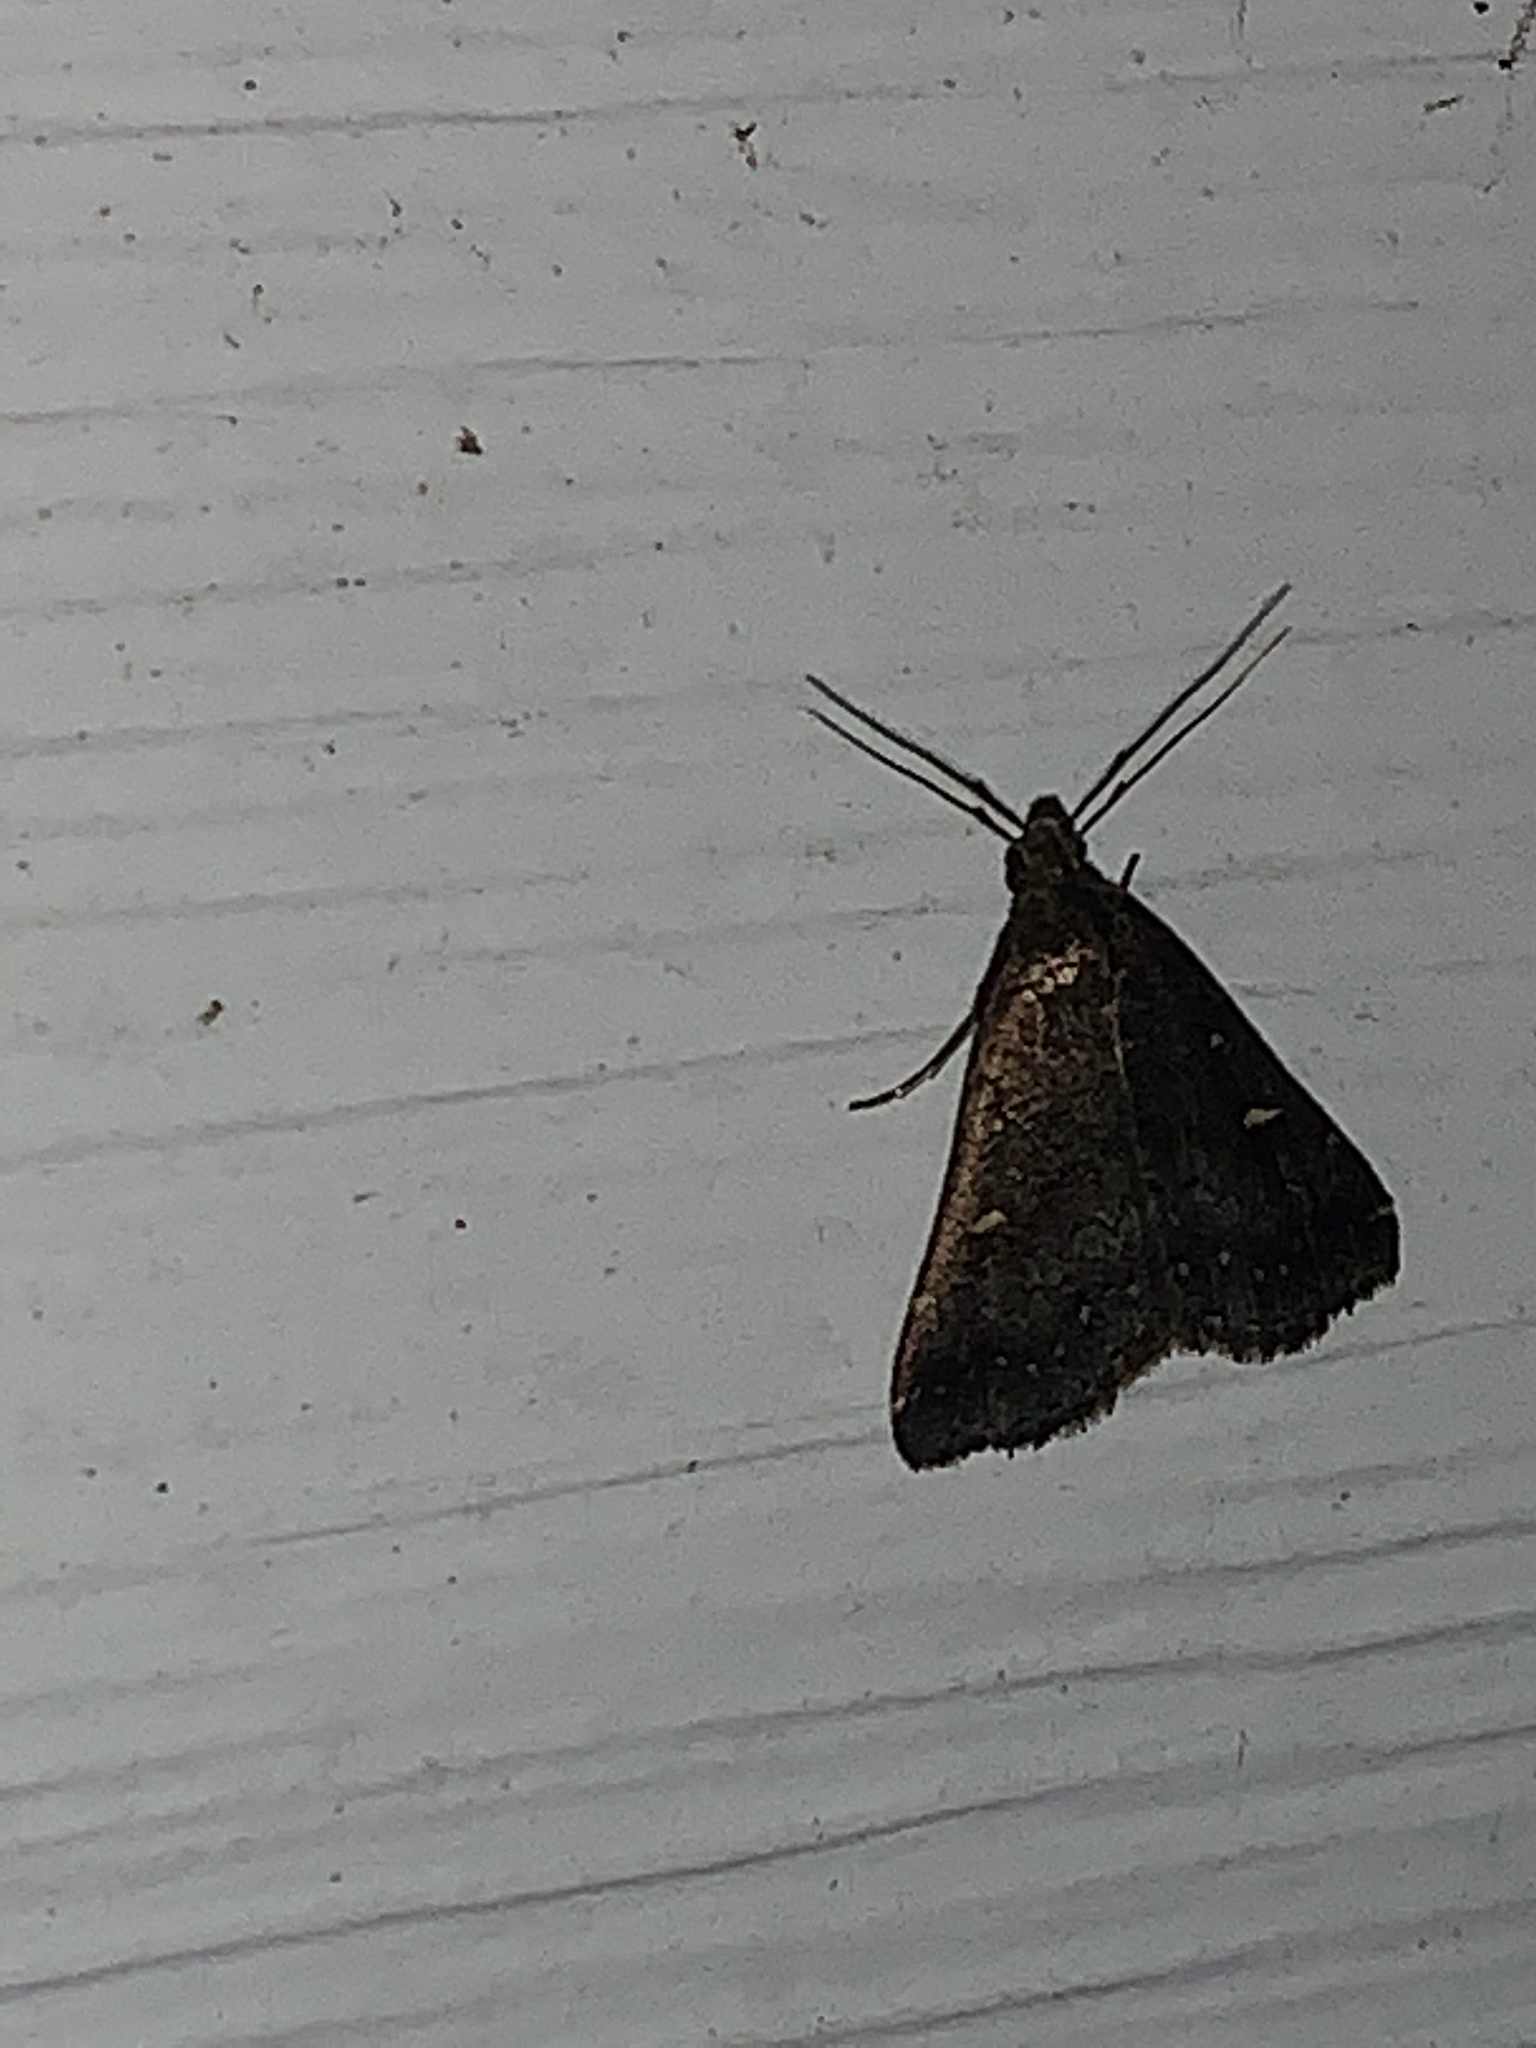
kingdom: Animalia
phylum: Arthropoda
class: Insecta
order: Lepidoptera
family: Erebidae
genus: Tetanolita
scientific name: Tetanolita mynesalis
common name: Smoky tetanolita moth
